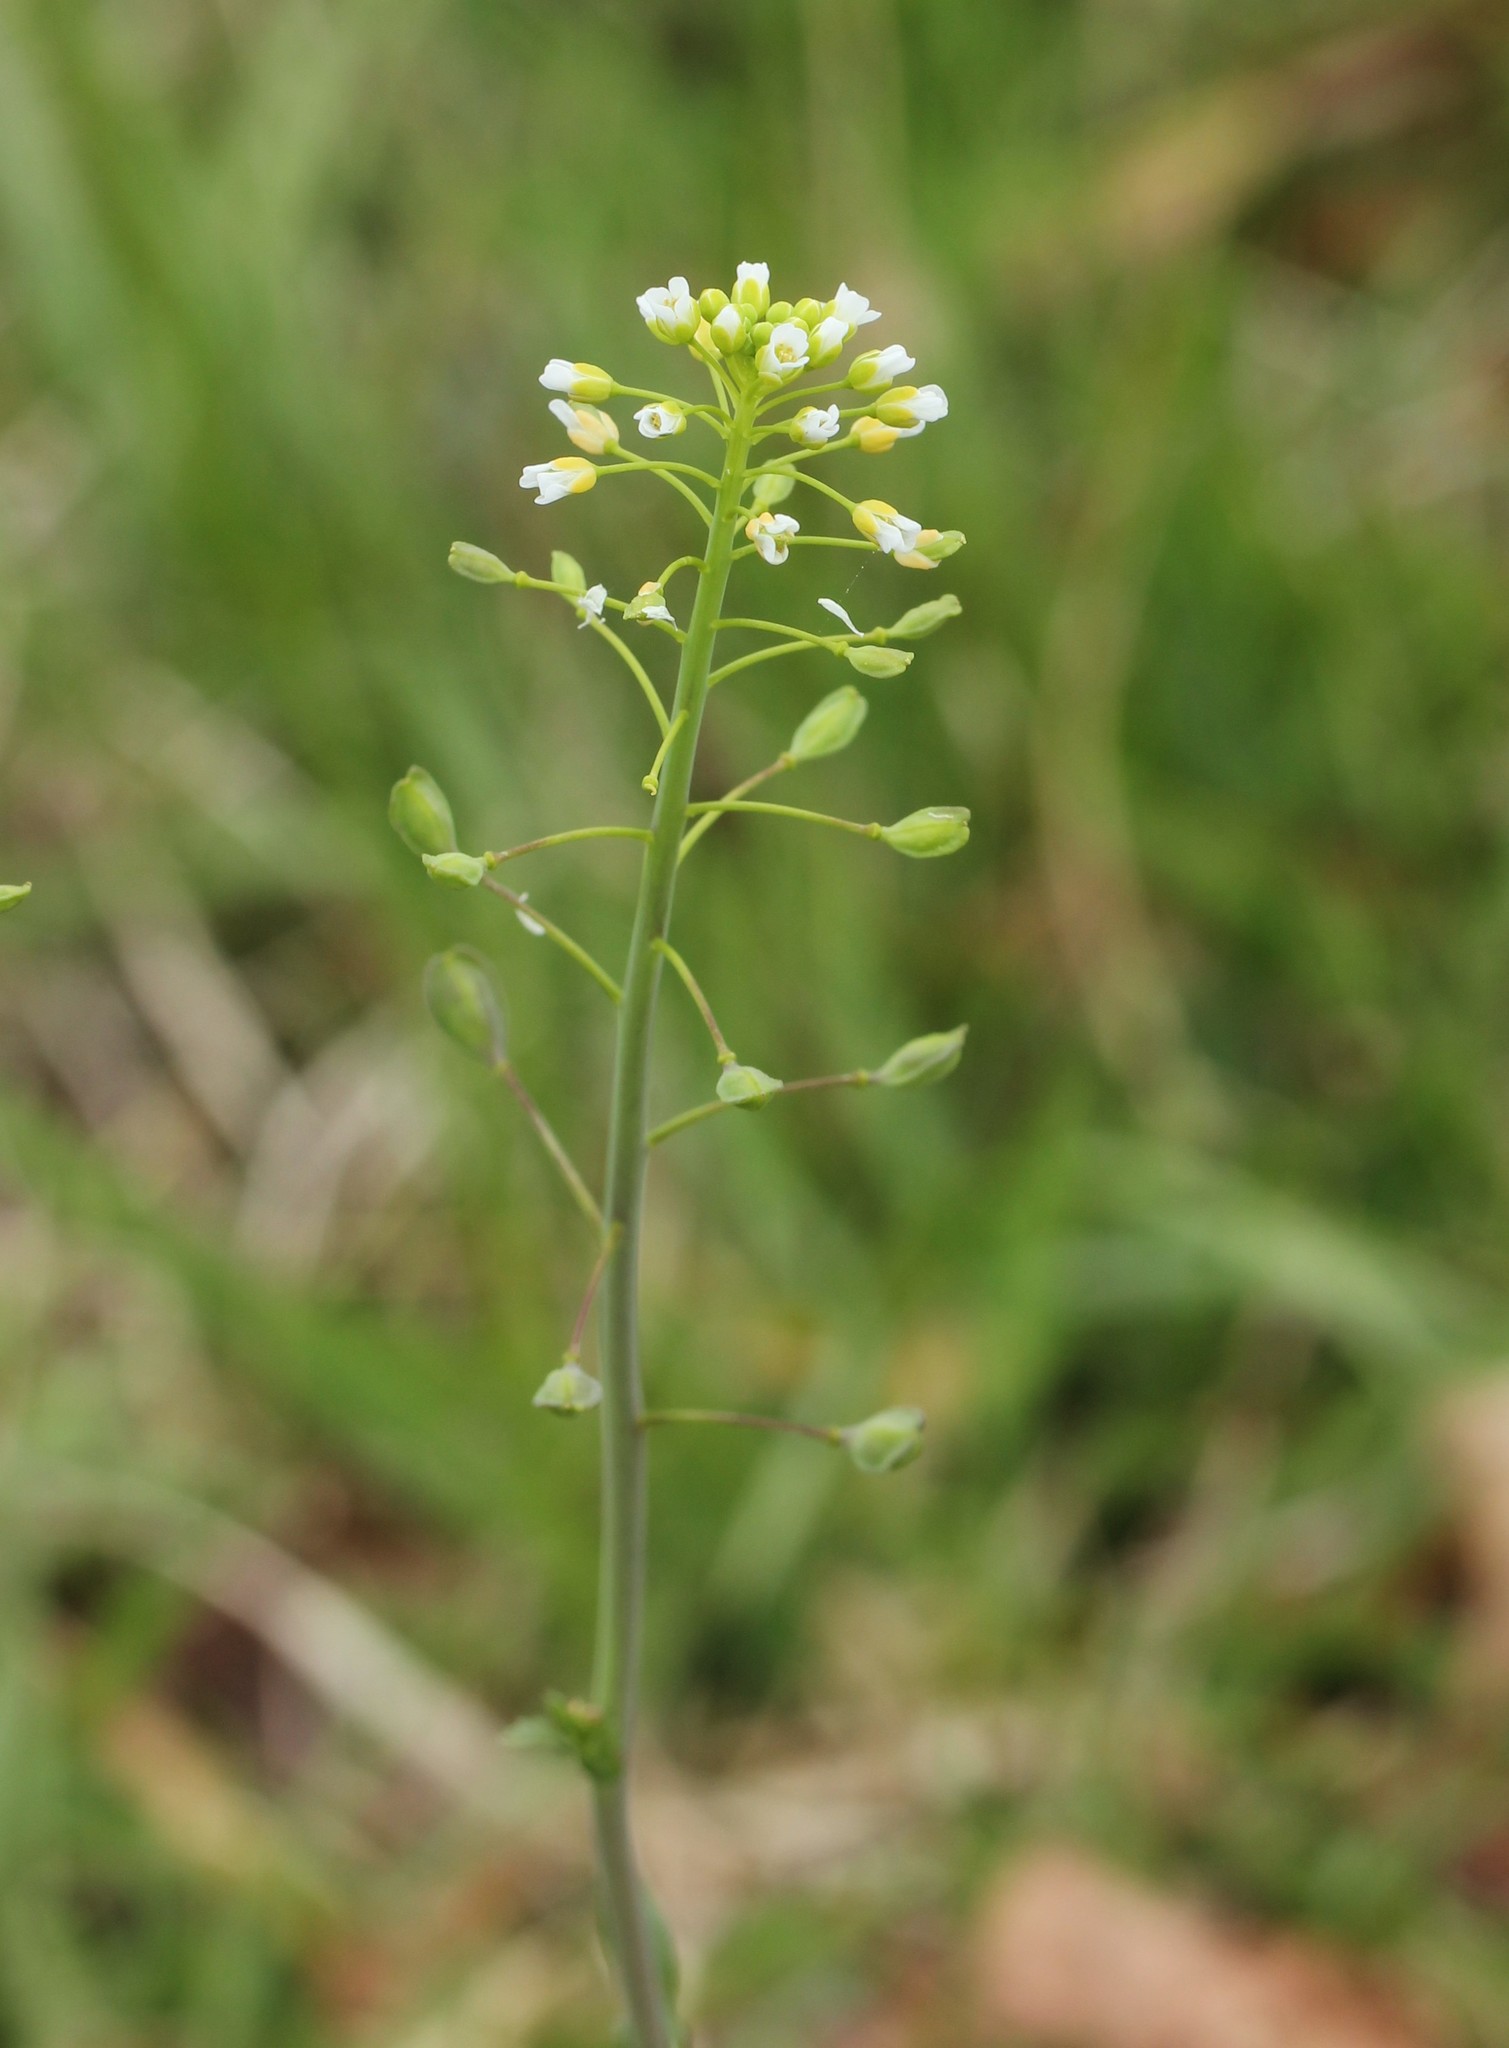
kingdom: Plantae
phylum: Tracheophyta
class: Magnoliopsida
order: Brassicales
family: Brassicaceae
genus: Mummenhoffia
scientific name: Mummenhoffia alliacea
